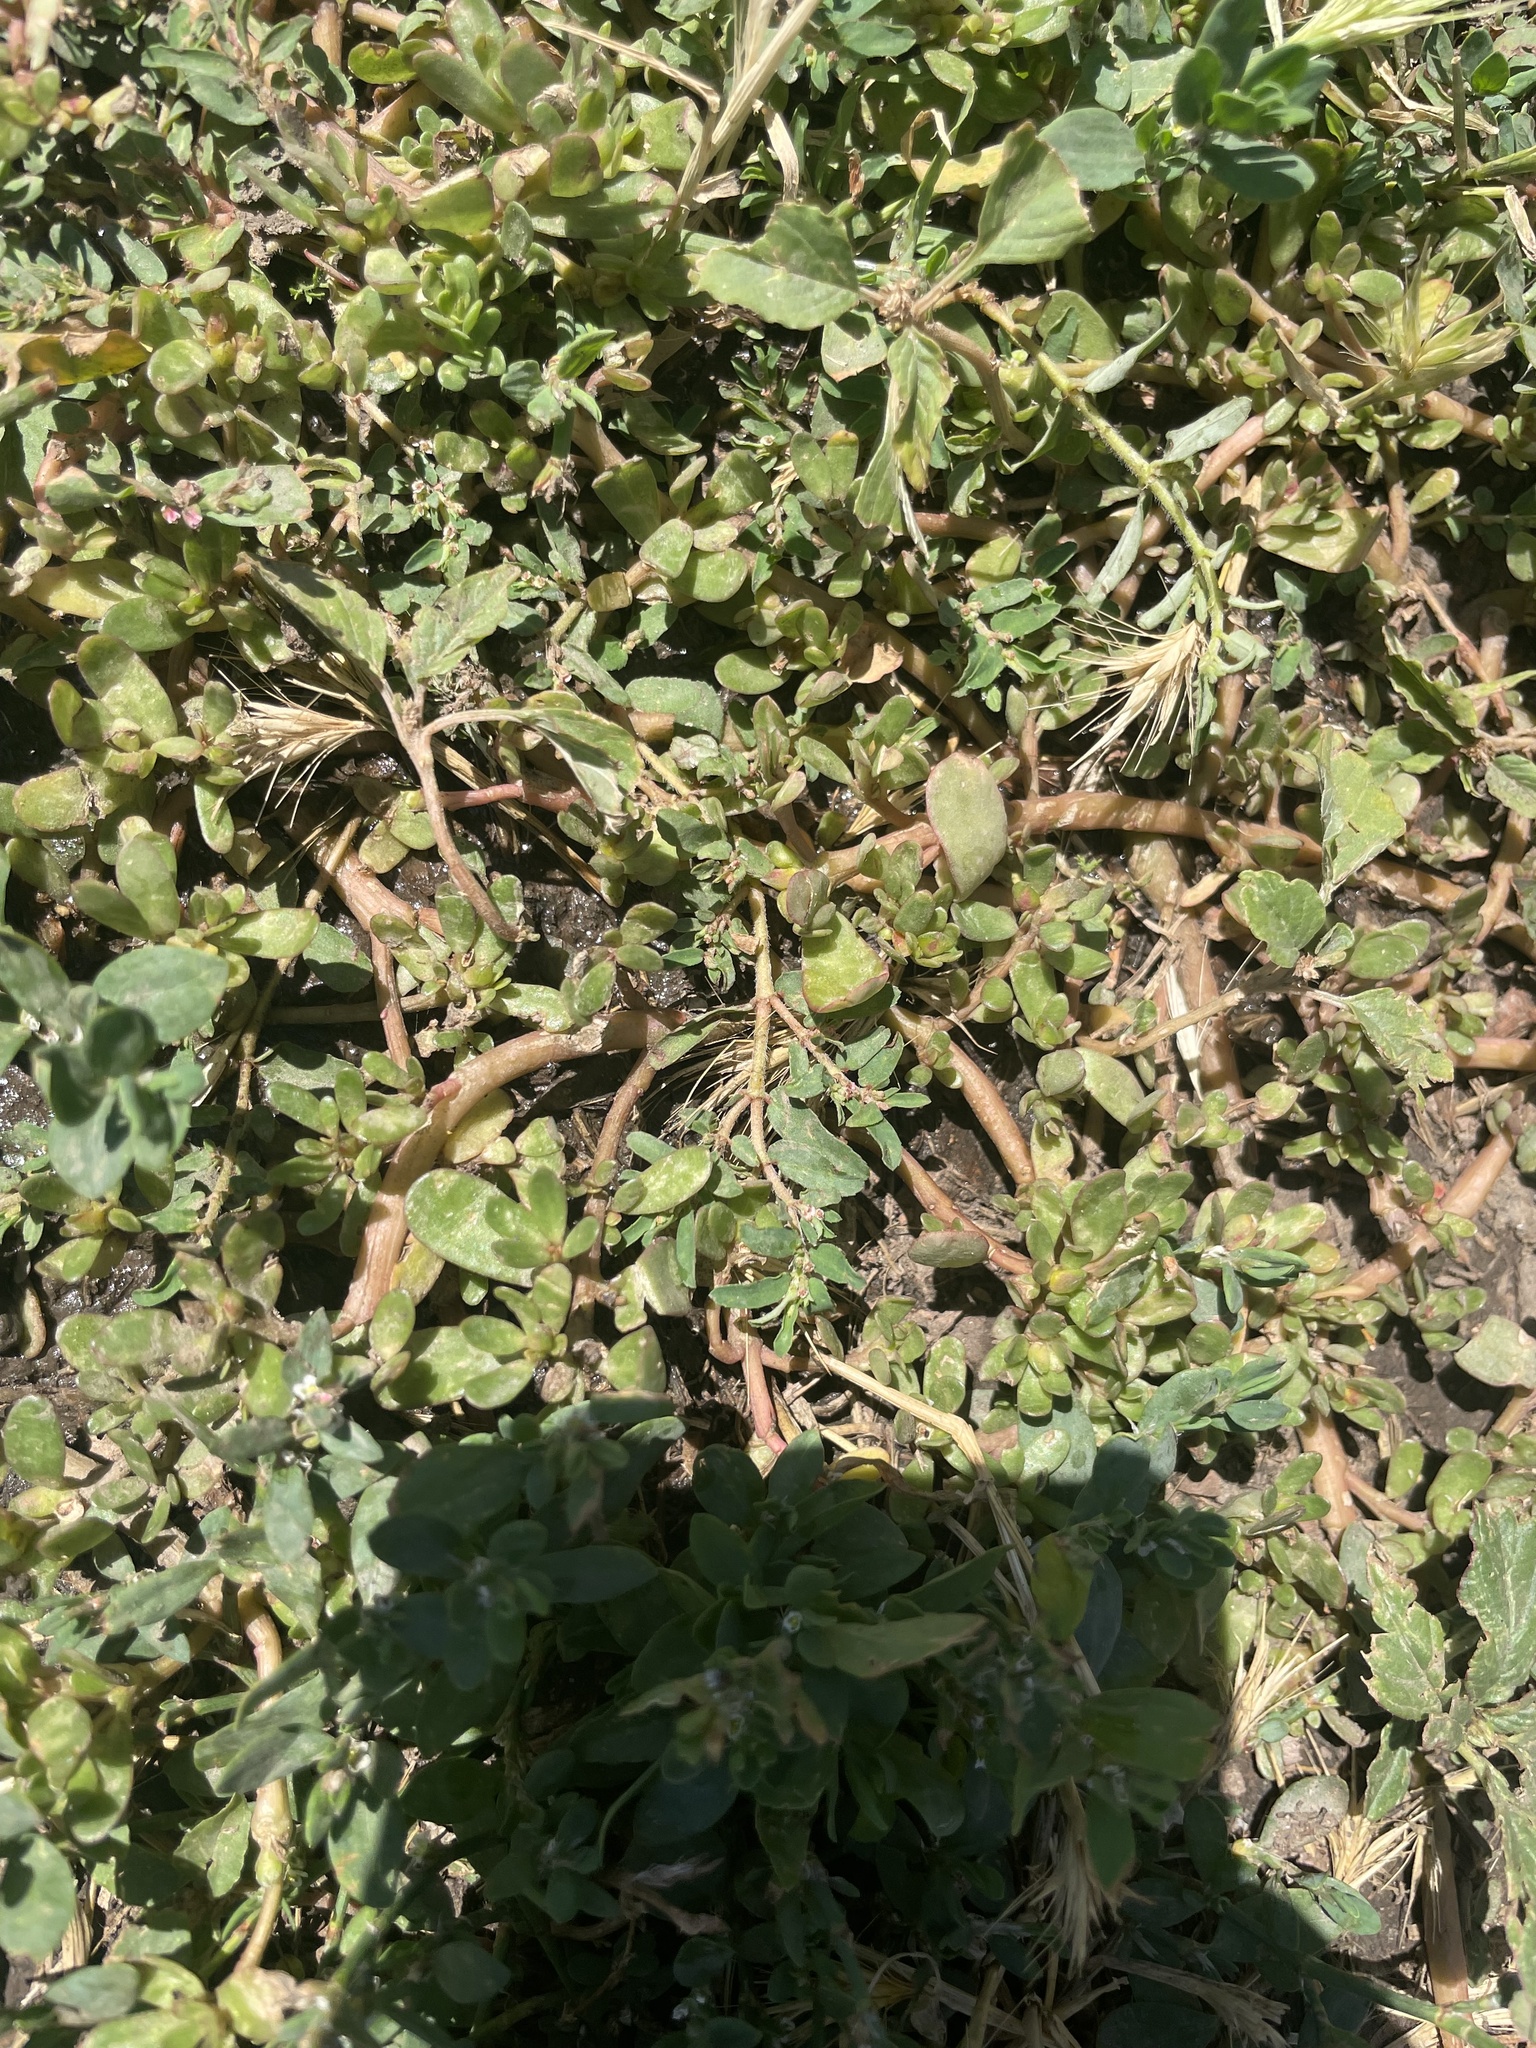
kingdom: Plantae
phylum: Tracheophyta
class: Magnoliopsida
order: Caryophyllales
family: Portulacaceae
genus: Portulaca
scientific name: Portulaca oleracea
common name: Common purslane
